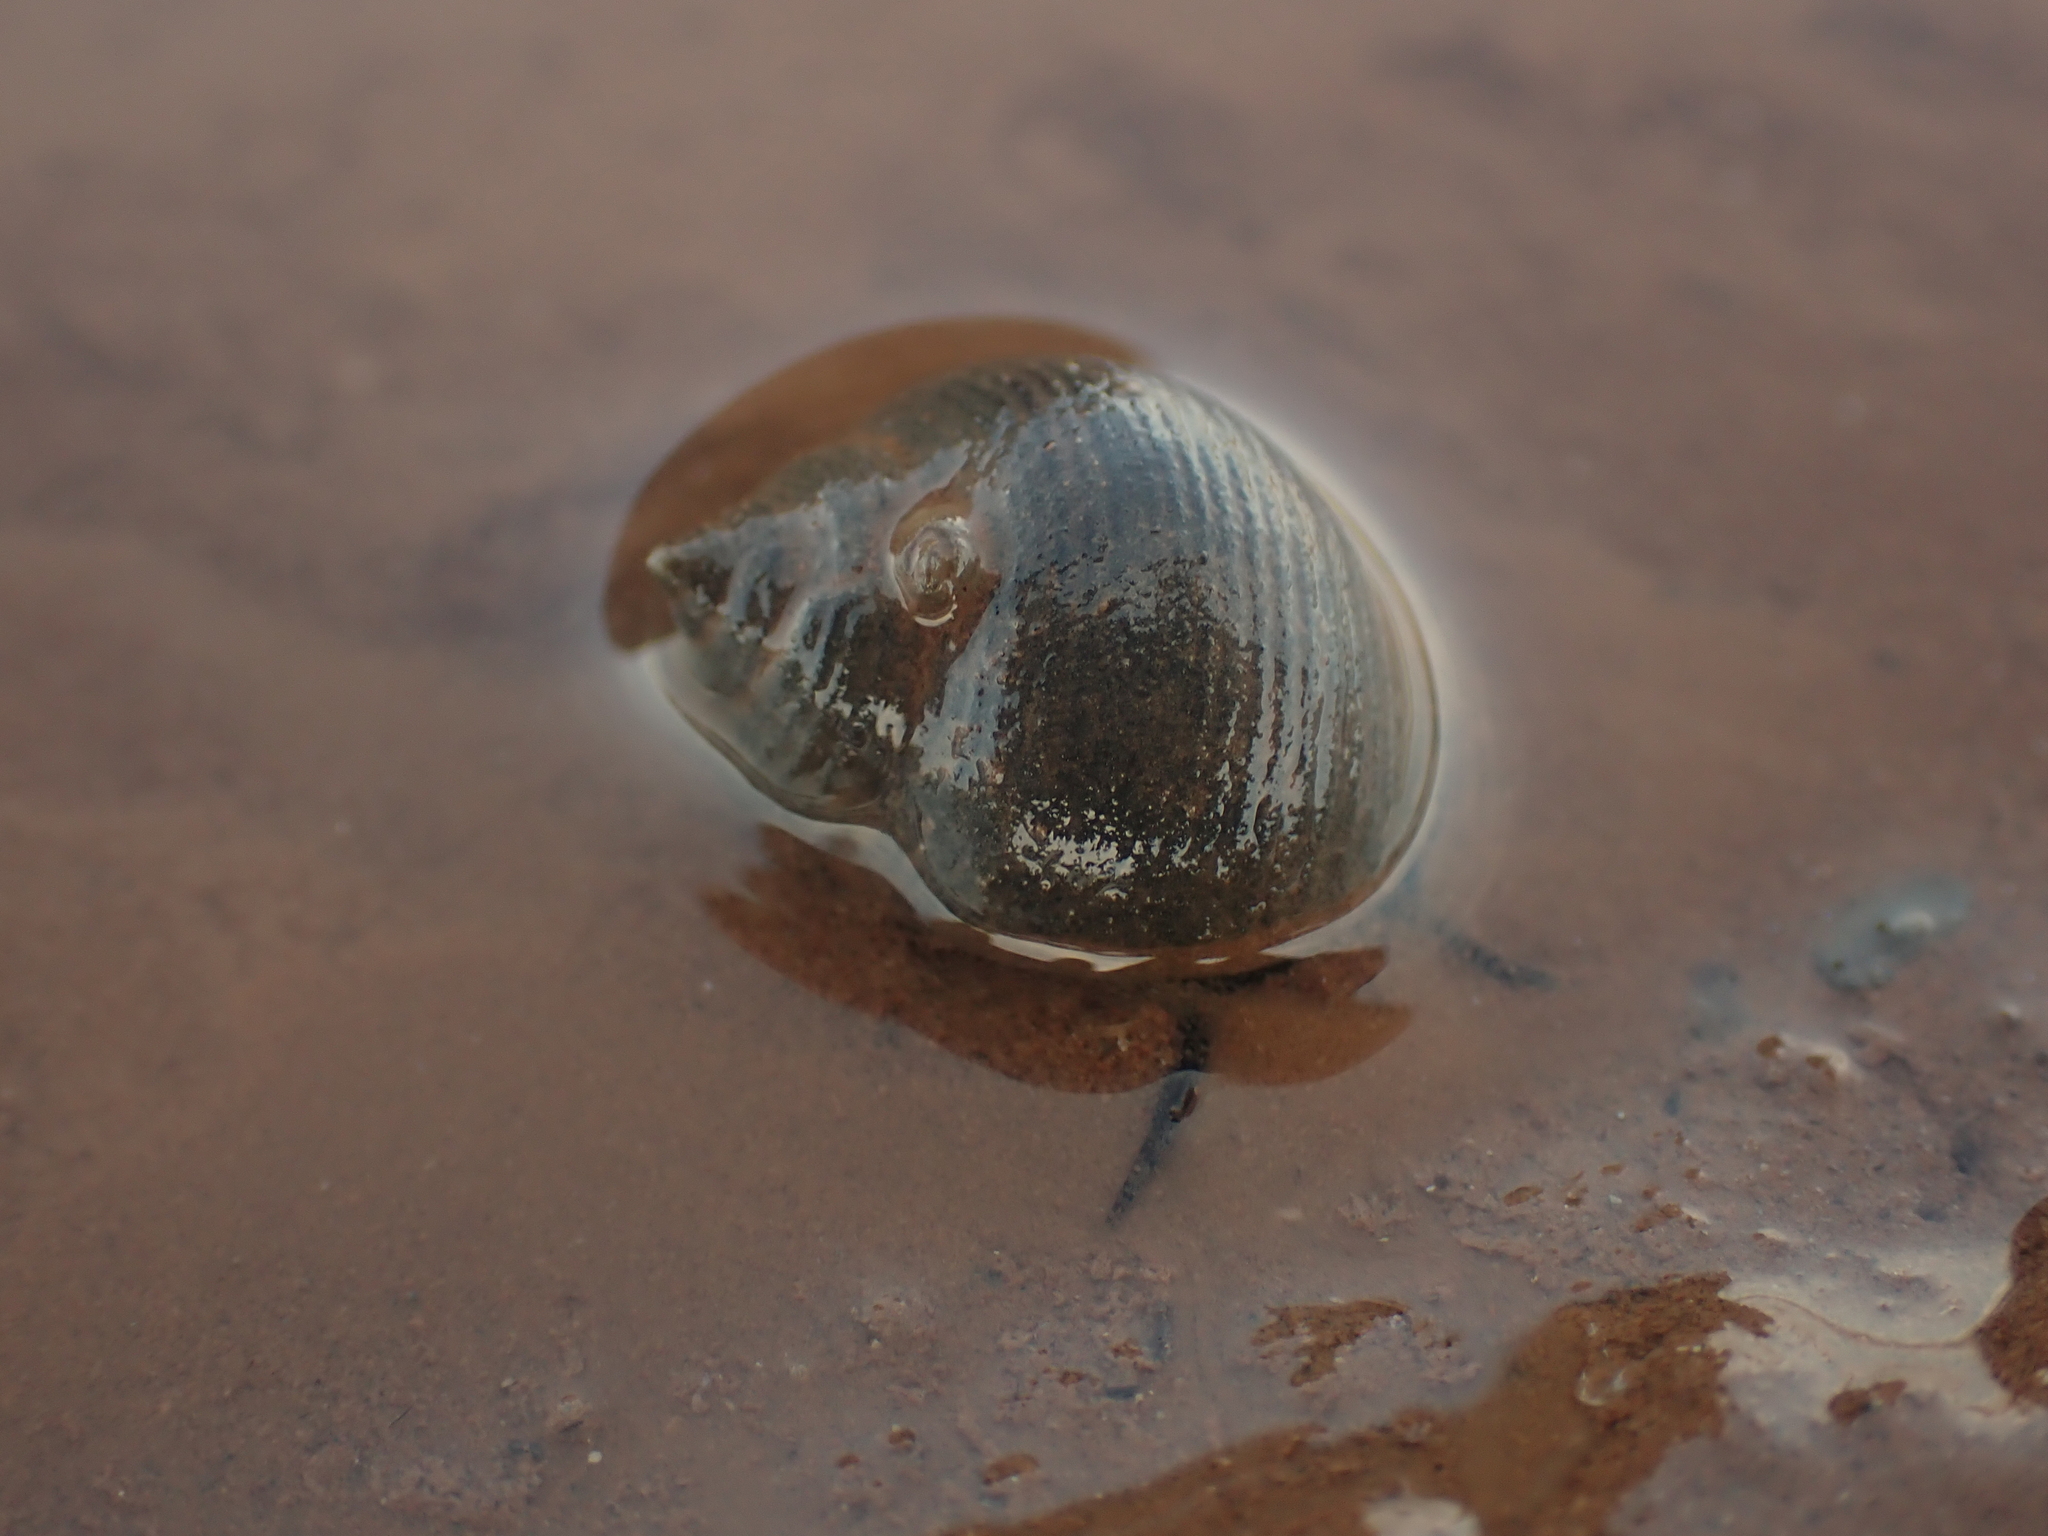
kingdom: Animalia
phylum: Mollusca
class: Gastropoda
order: Littorinimorpha
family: Littorinidae
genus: Littorina
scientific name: Littorina littorea
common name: Common periwinkle
